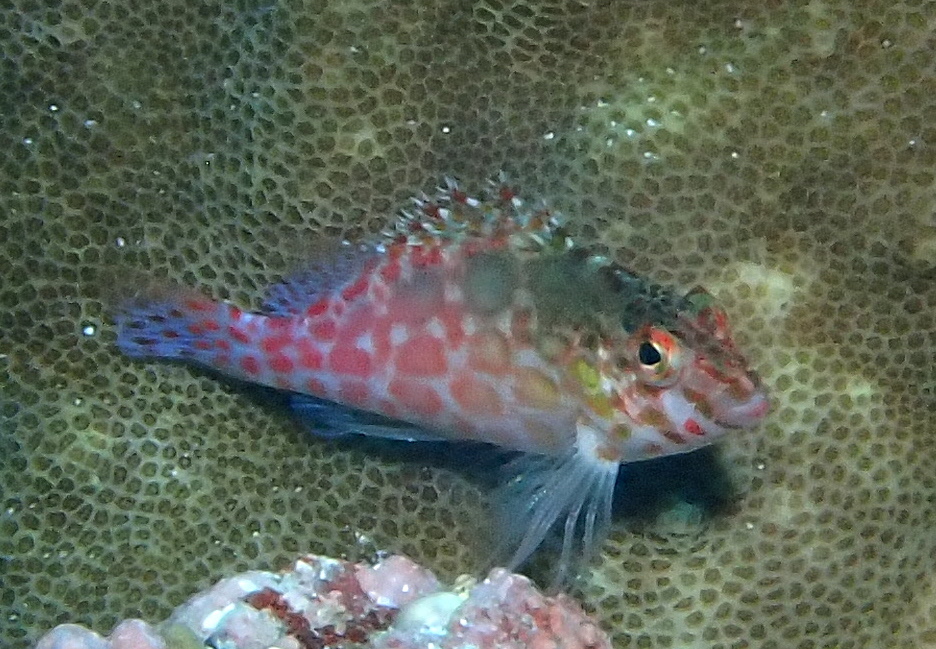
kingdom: Animalia
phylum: Chordata
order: Perciformes
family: Cirrhitidae
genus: Cirrhitichthys
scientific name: Cirrhitichthys oxycephalus
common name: Spotted hawkfish
